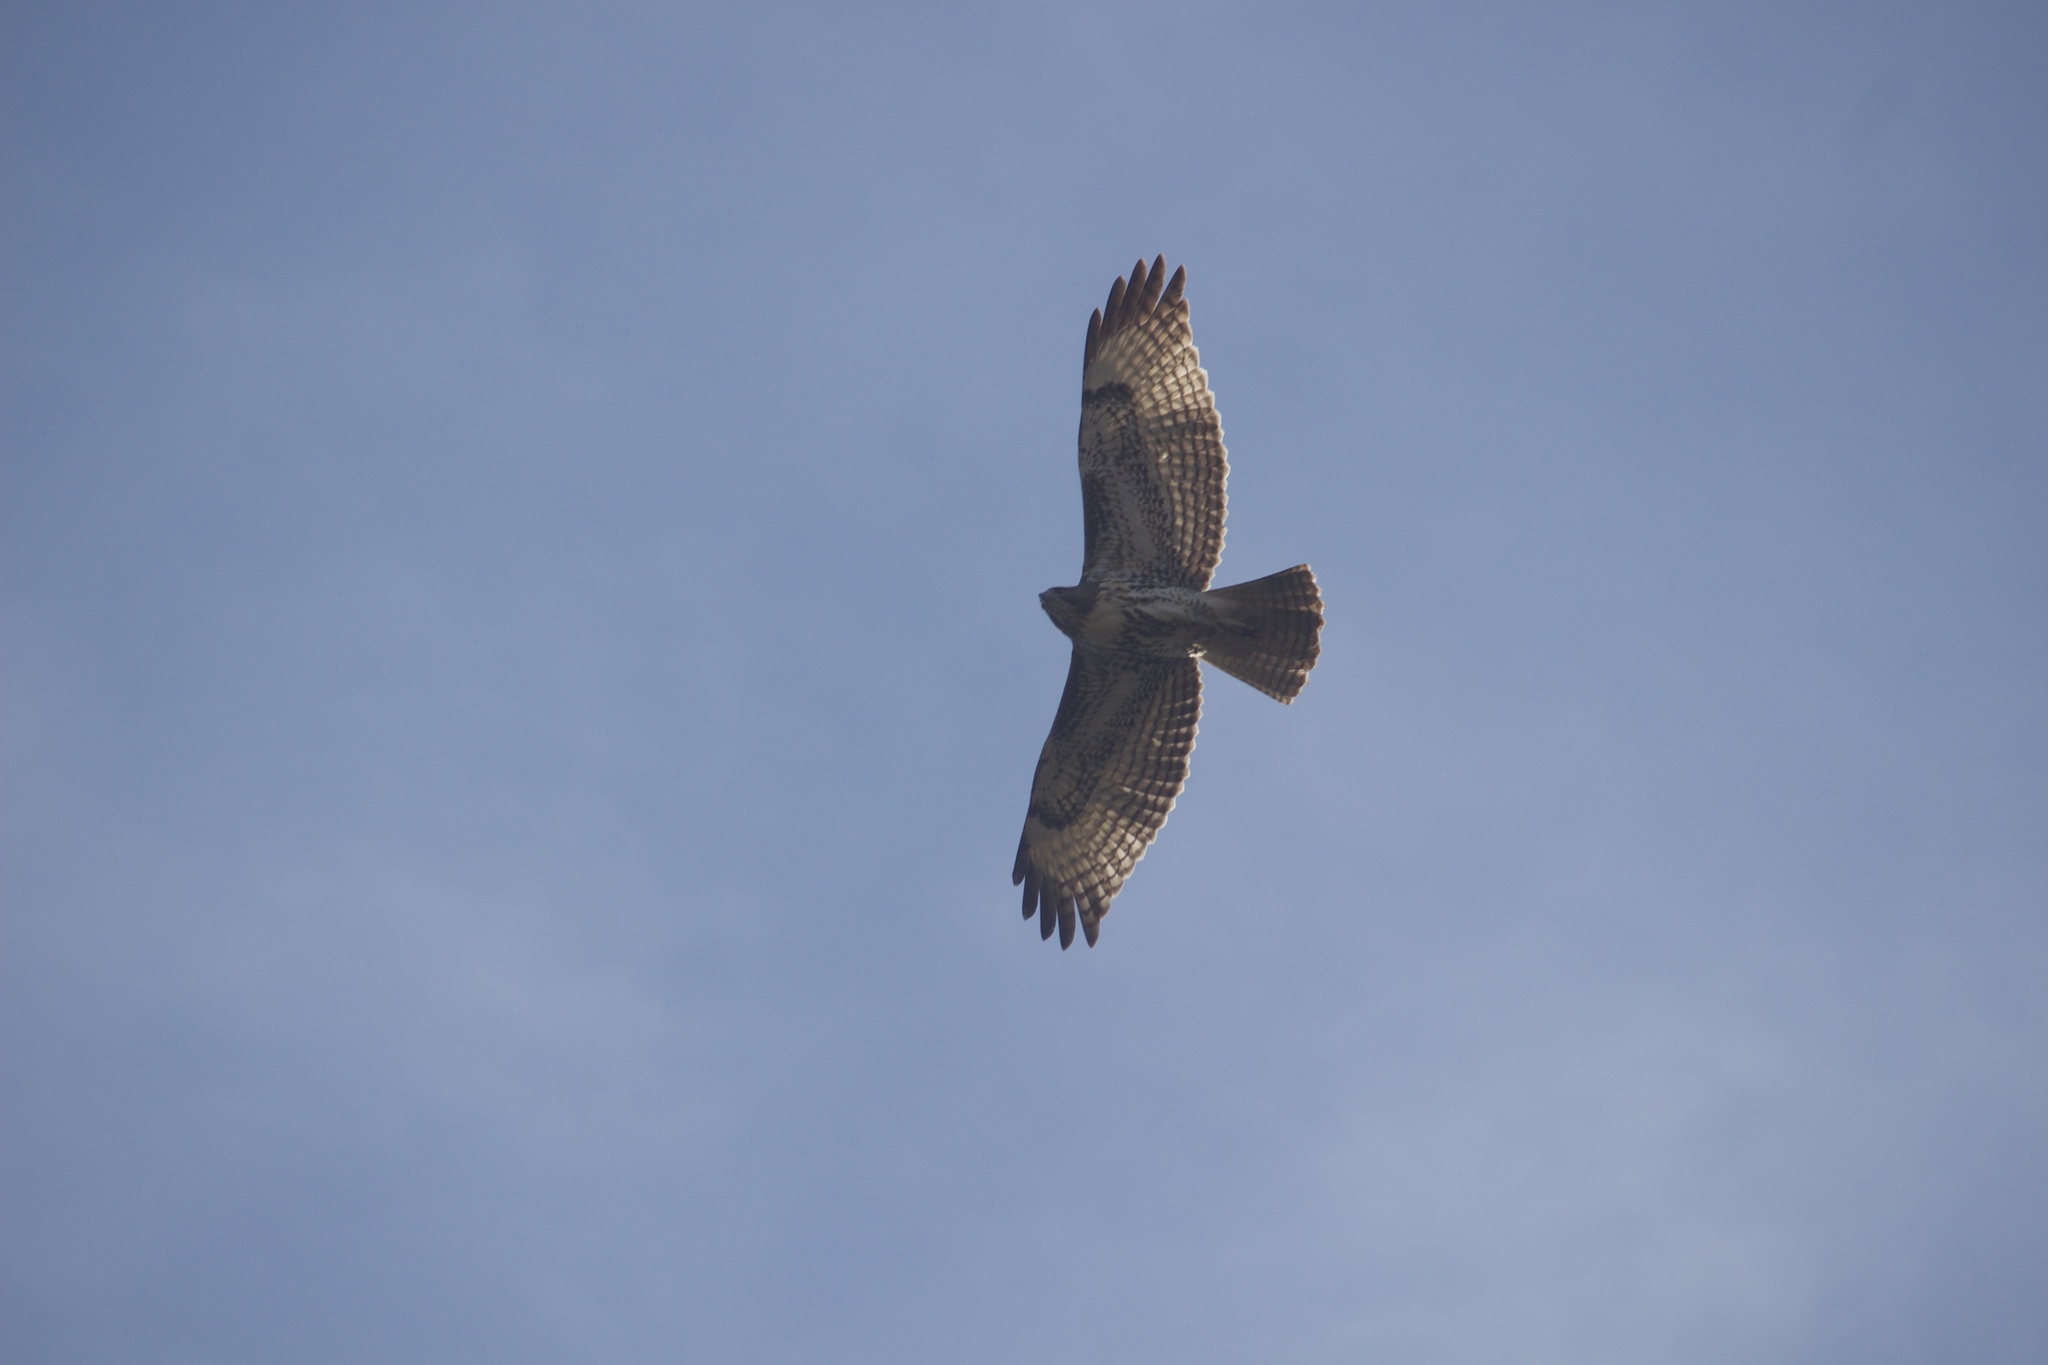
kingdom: Animalia
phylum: Chordata
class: Aves
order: Accipitriformes
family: Accipitridae
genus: Buteo
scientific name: Buteo jamaicensis
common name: Red-tailed hawk
